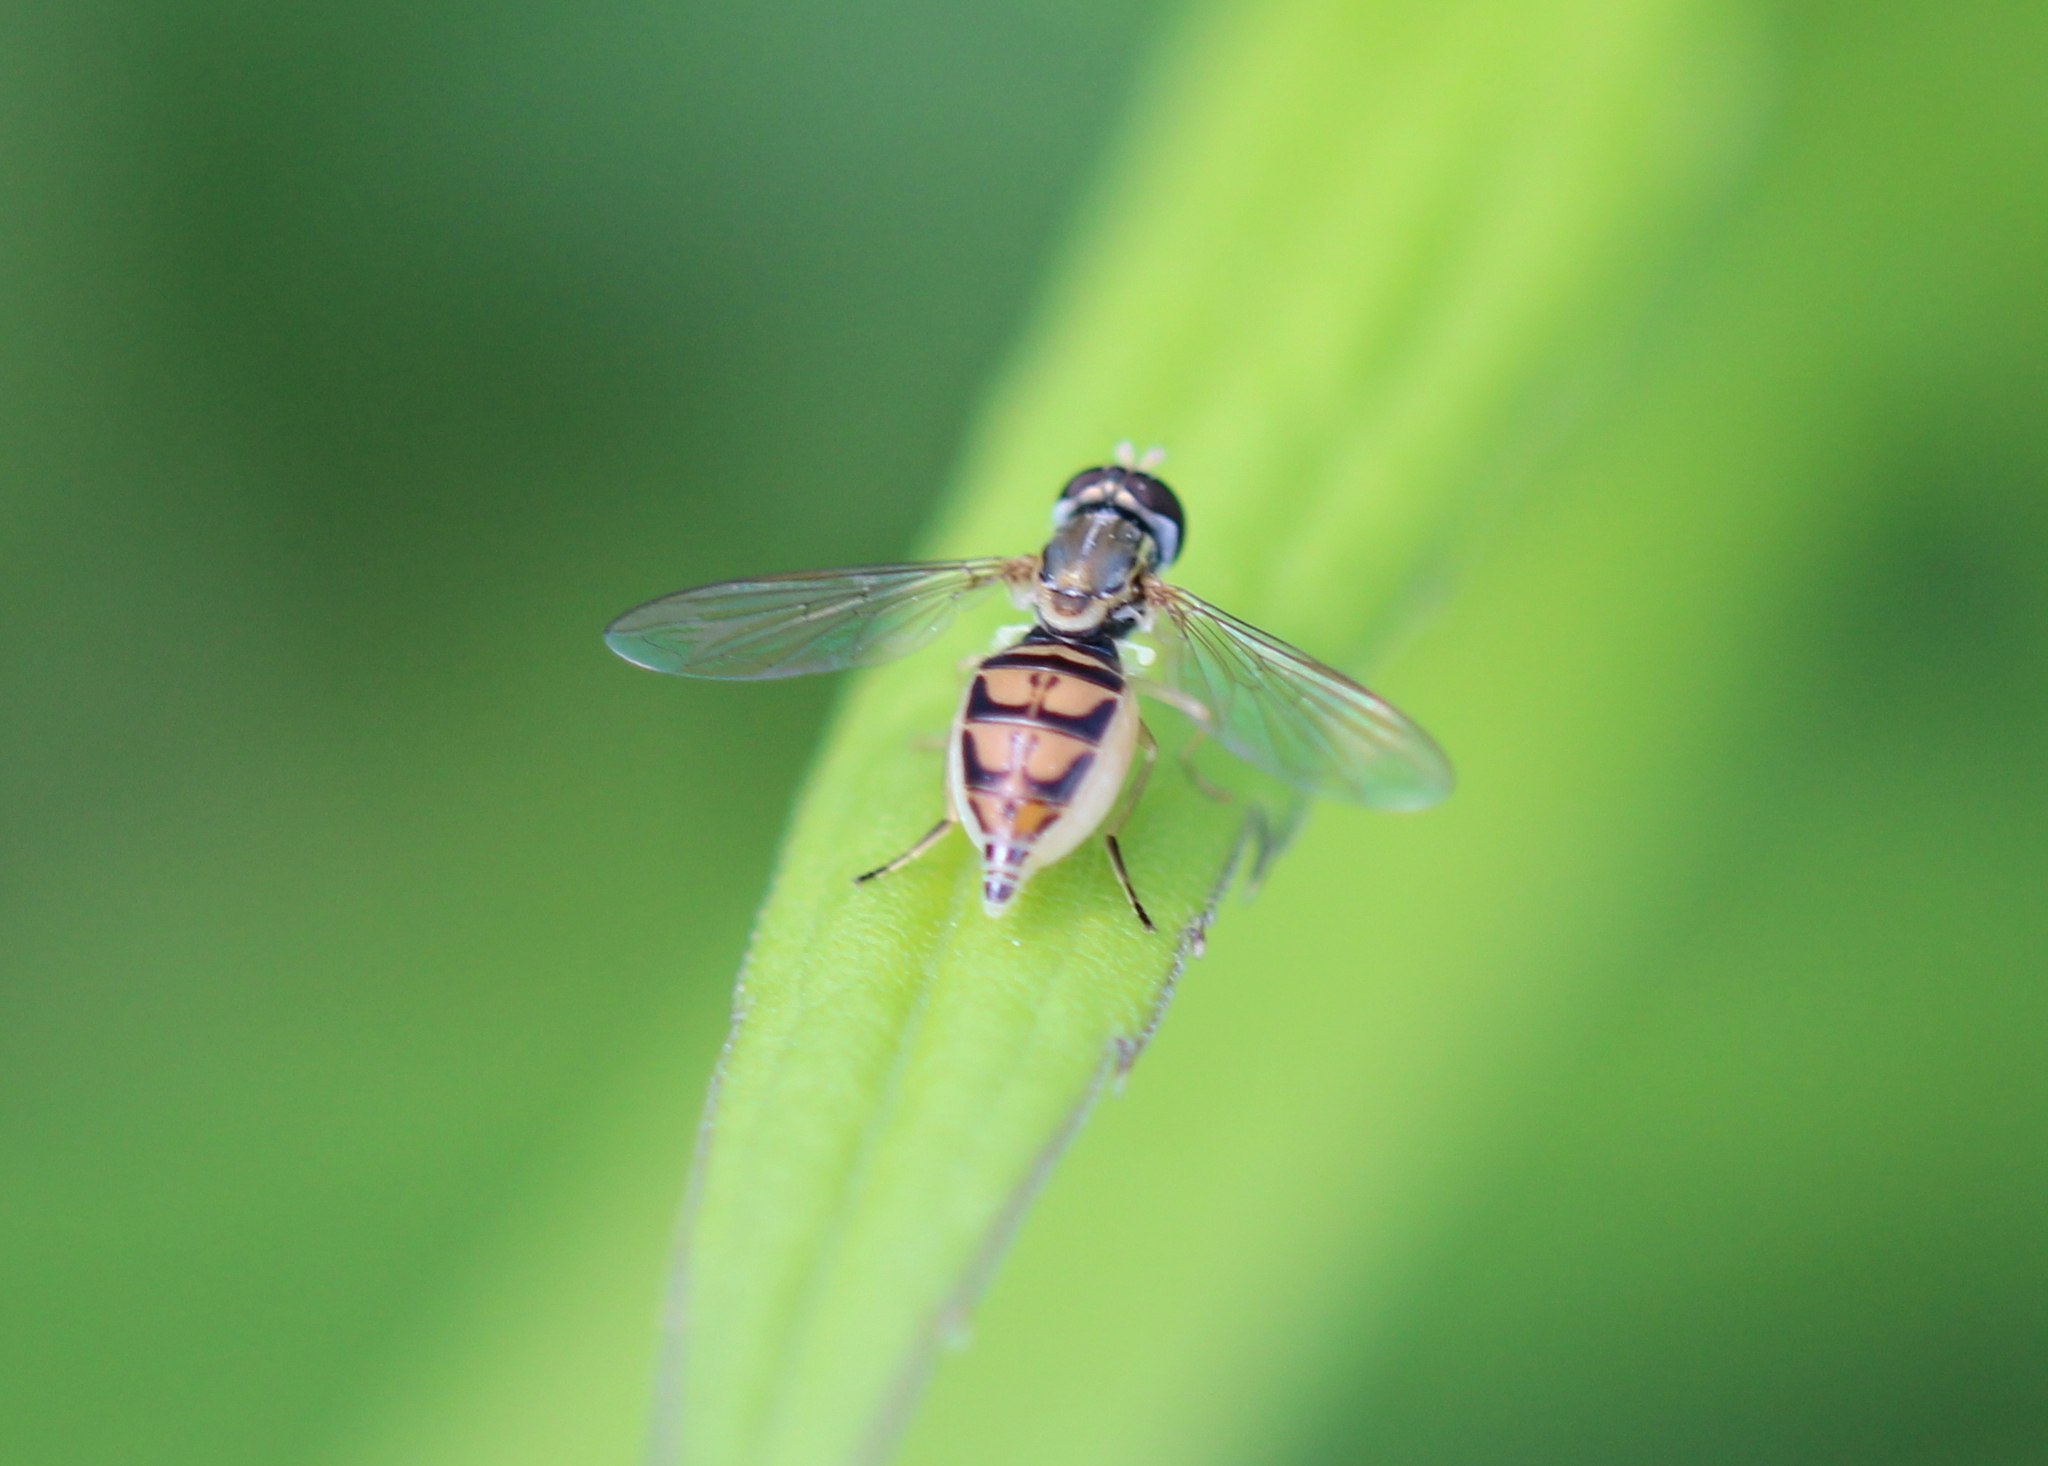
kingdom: Animalia
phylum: Arthropoda
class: Insecta
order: Diptera
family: Syrphidae
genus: Toxomerus
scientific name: Toxomerus marginatus
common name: Syrphid fly
